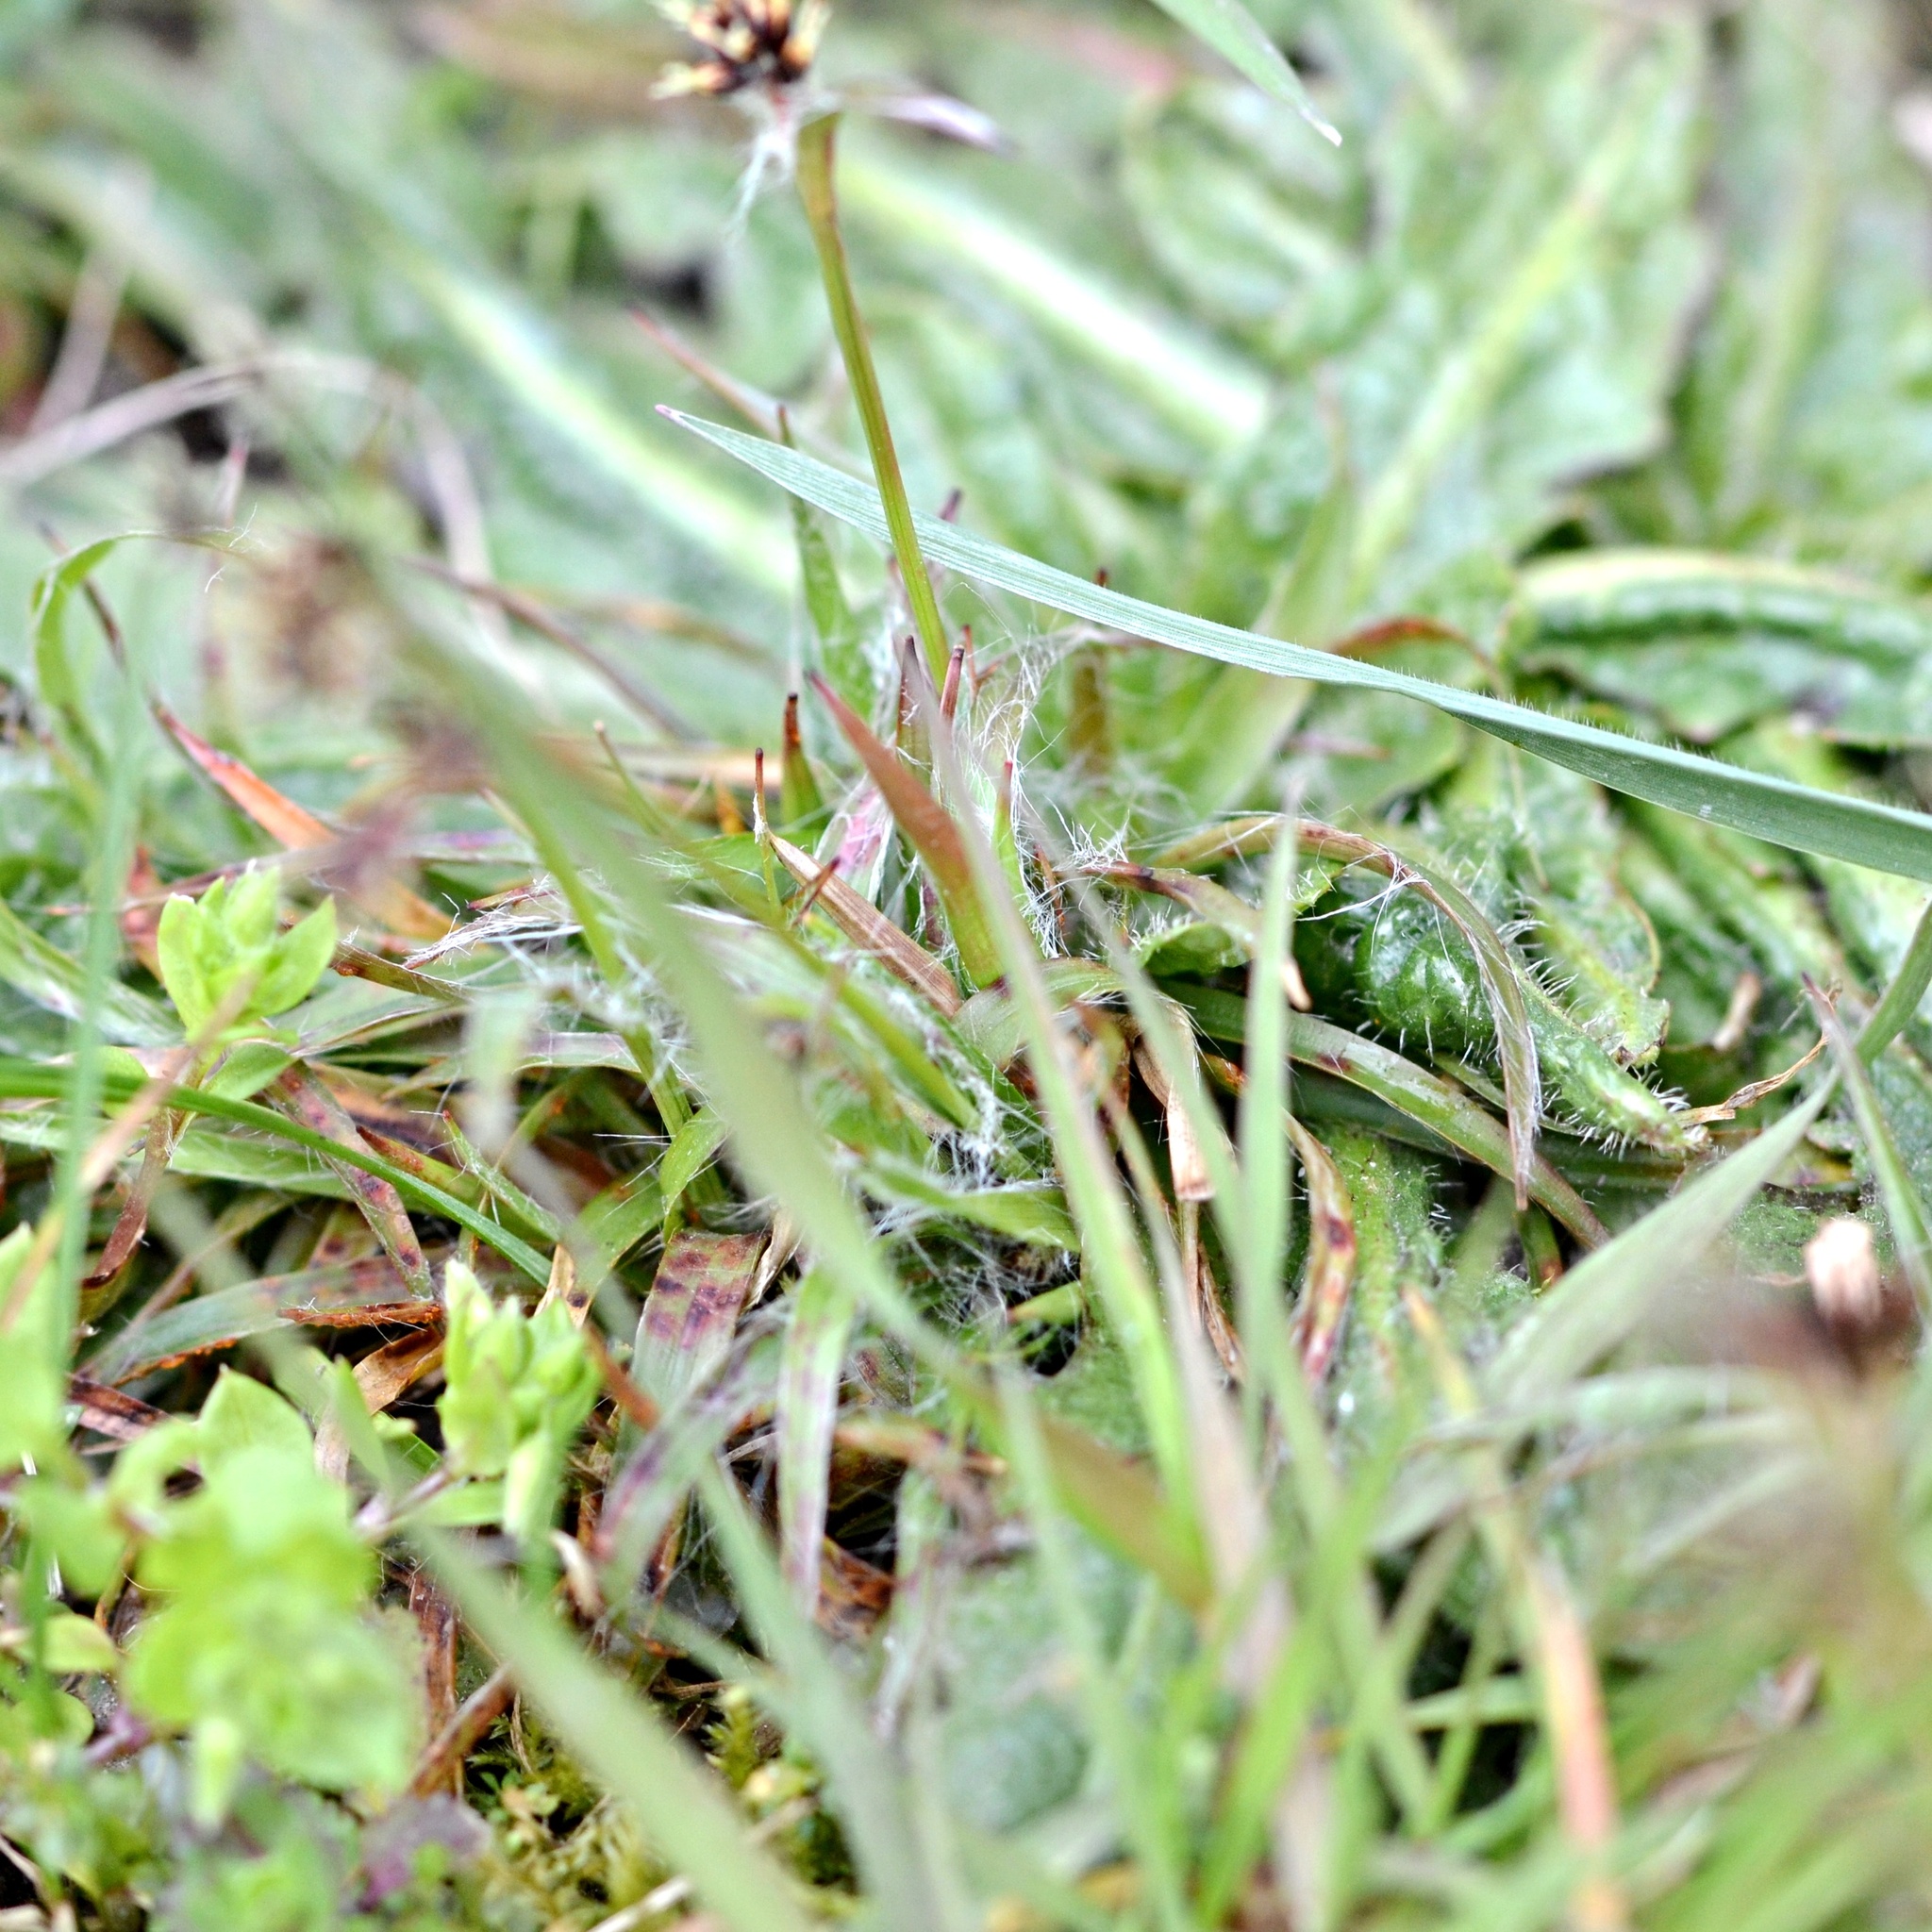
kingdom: Plantae
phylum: Tracheophyta
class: Liliopsida
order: Poales
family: Juncaceae
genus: Luzula
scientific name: Luzula campestris
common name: Field wood-rush
